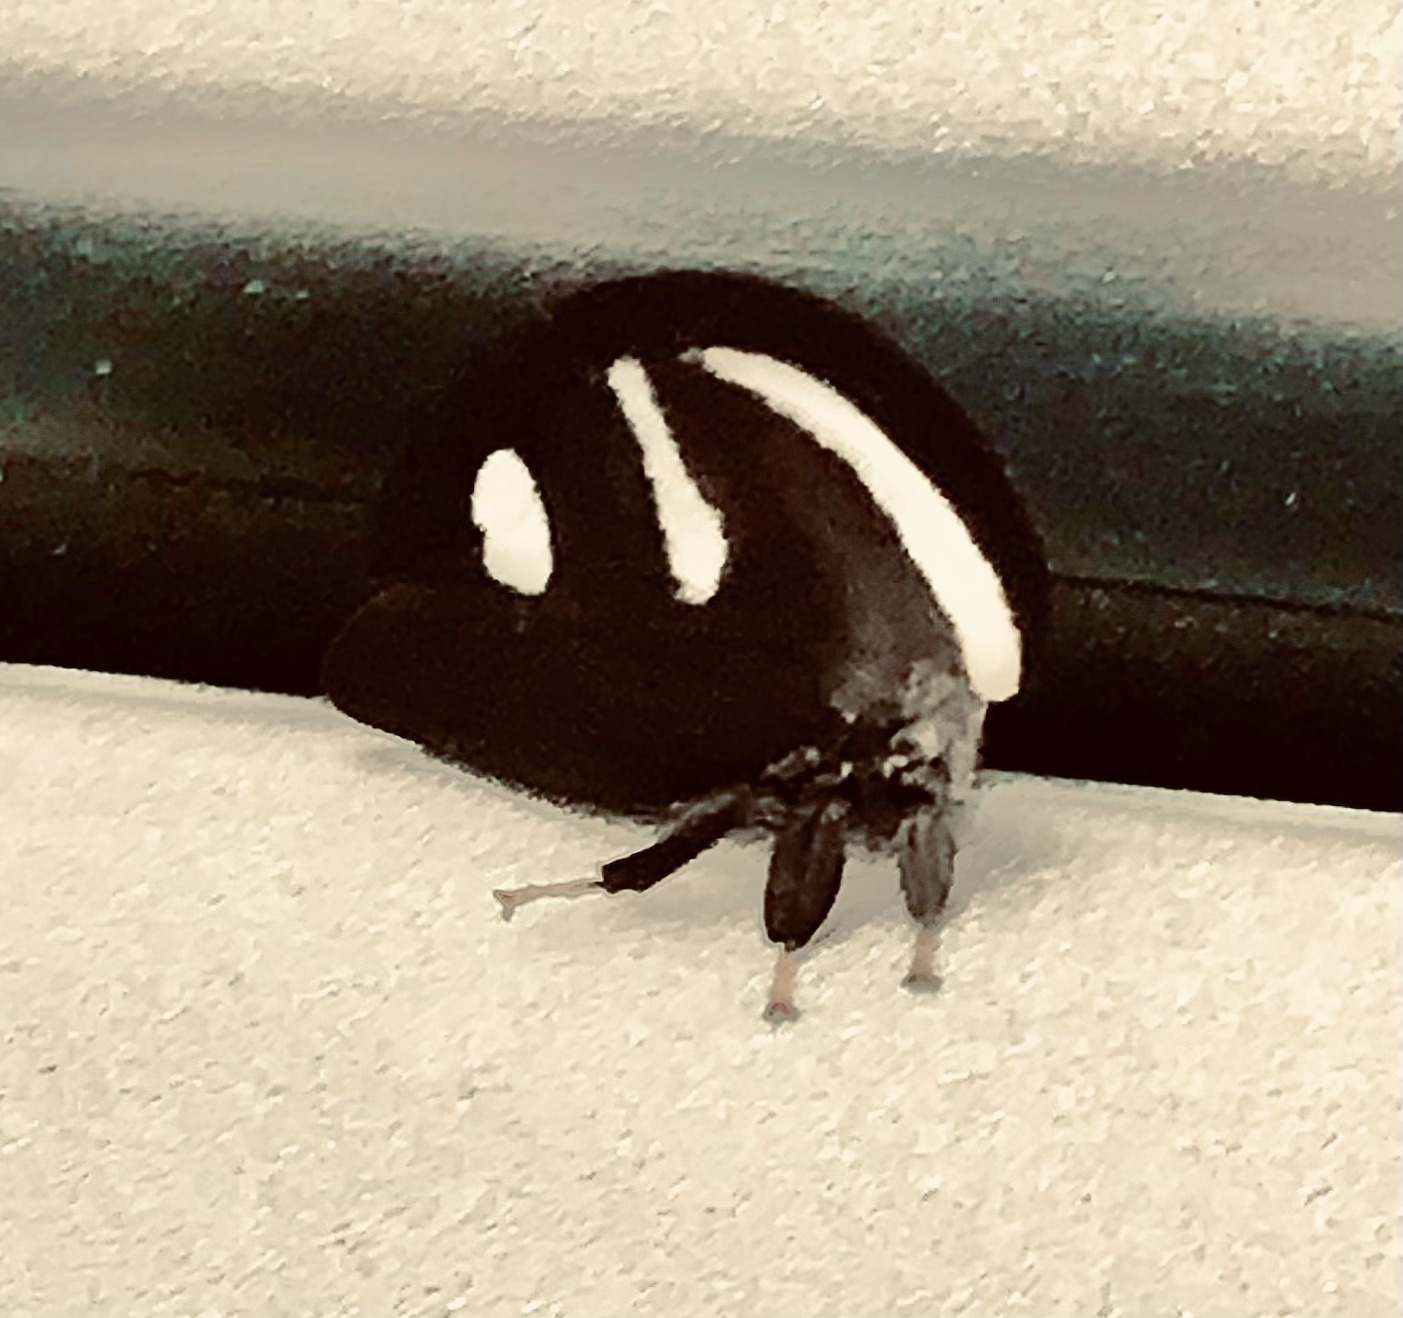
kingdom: Animalia
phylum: Arthropoda
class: Insecta
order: Hemiptera
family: Membracidae
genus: Membracis
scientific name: Membracis
